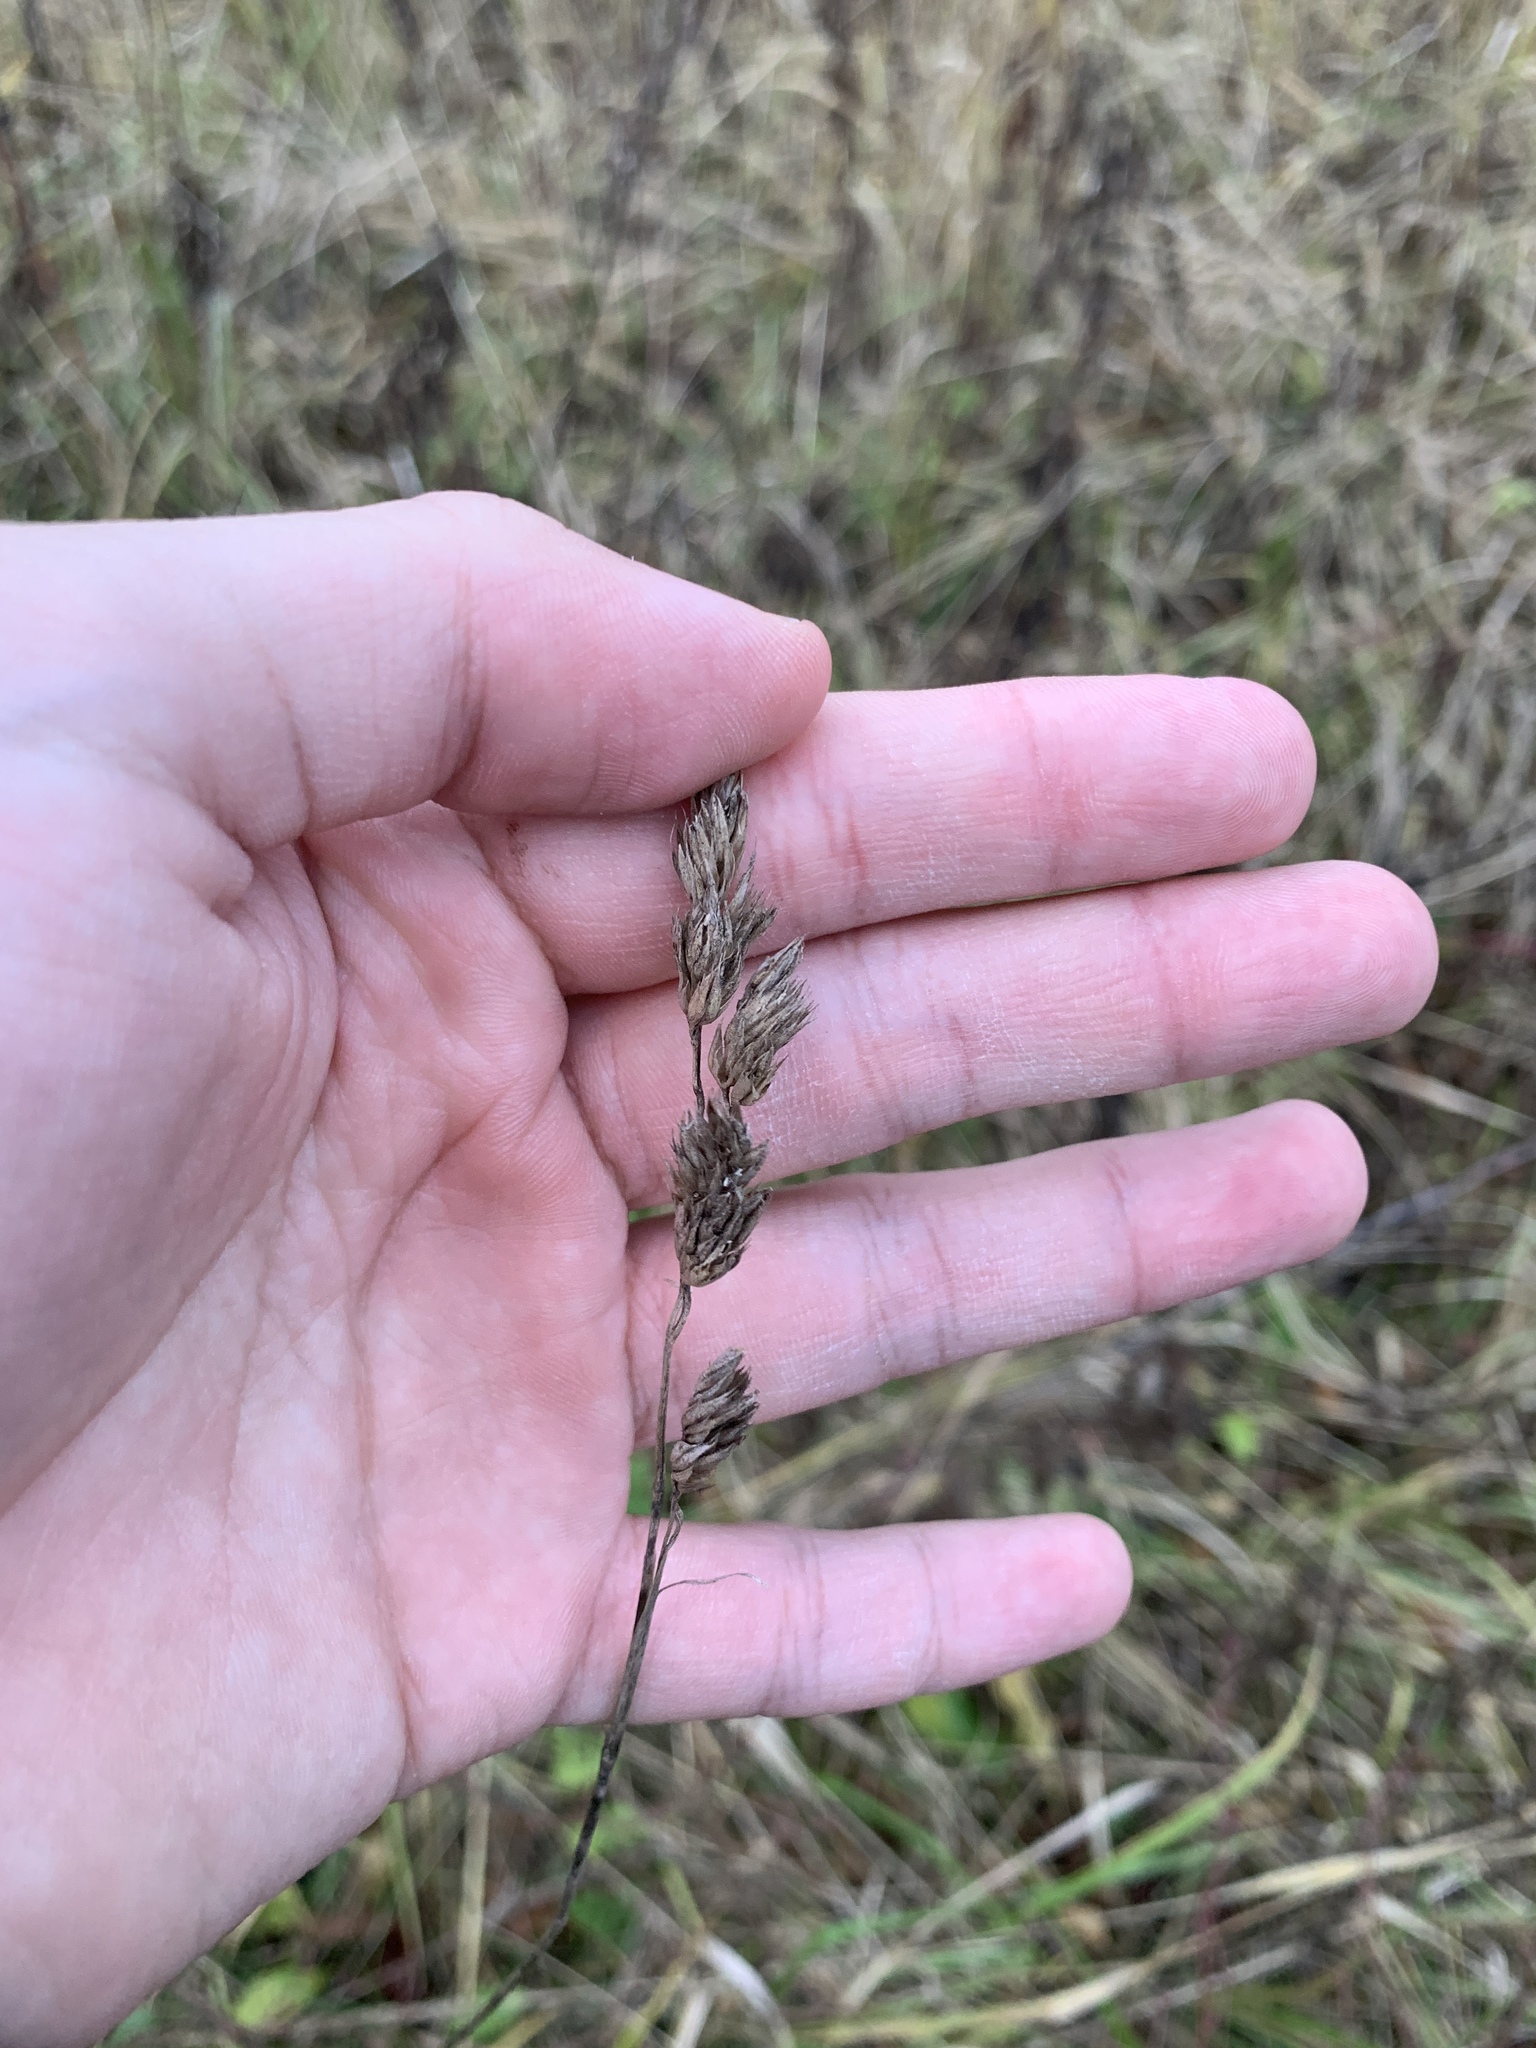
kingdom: Plantae
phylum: Tracheophyta
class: Liliopsida
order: Poales
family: Poaceae
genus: Dactylis
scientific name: Dactylis glomerata
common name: Orchardgrass
